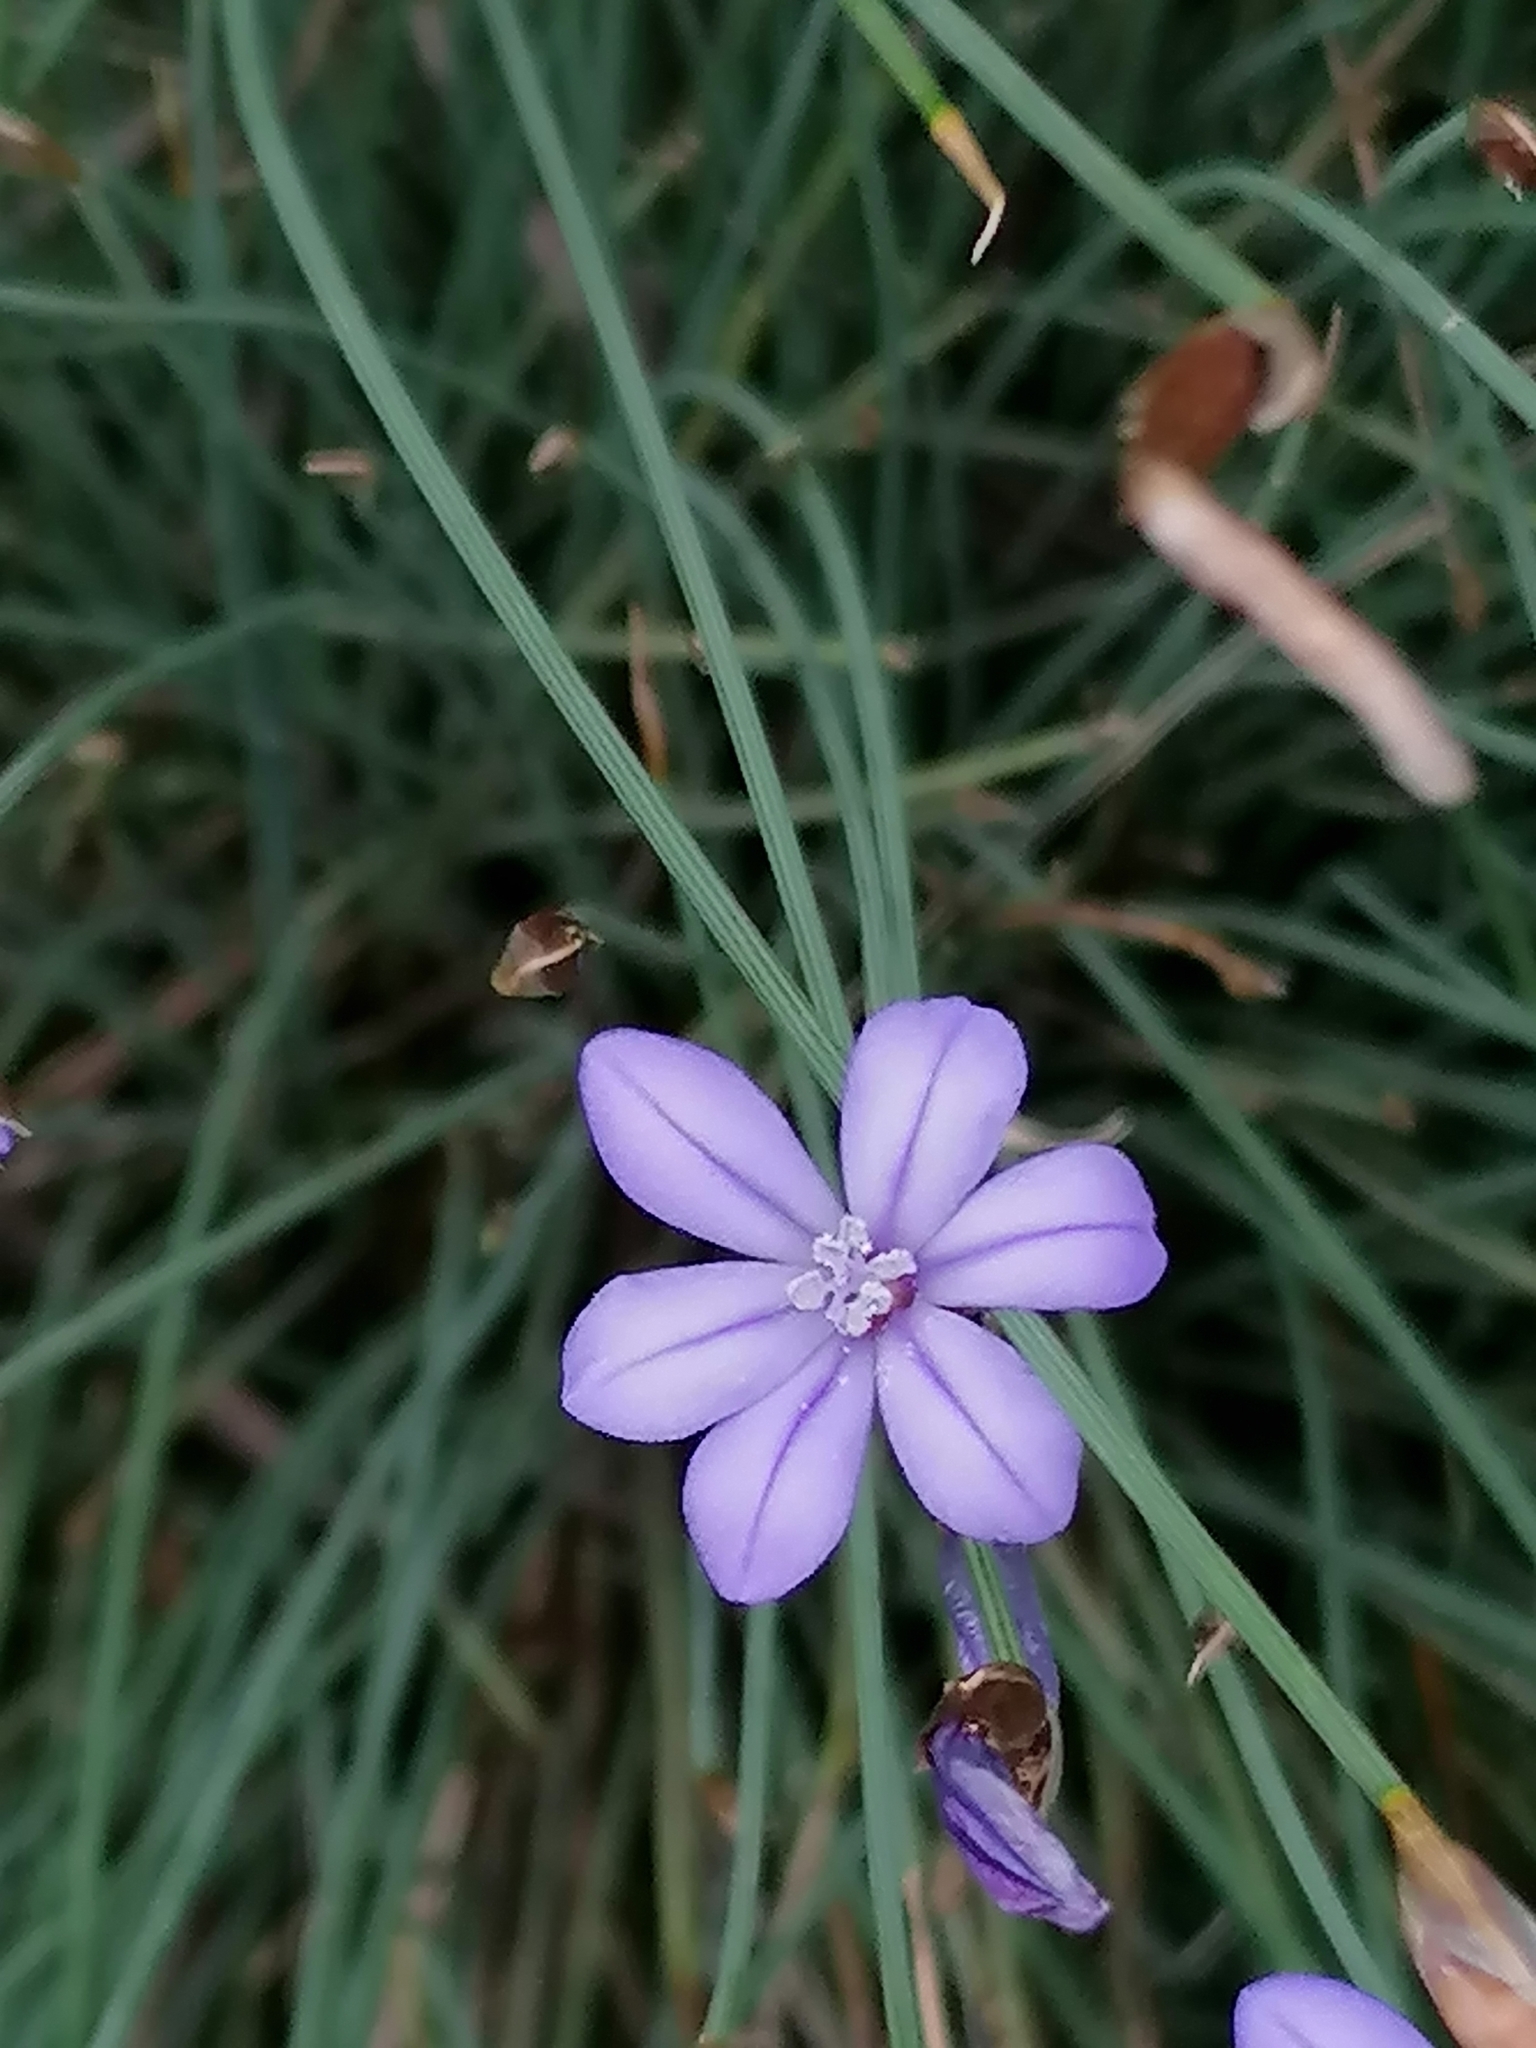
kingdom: Plantae
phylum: Tracheophyta
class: Liliopsida
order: Asparagales
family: Asparagaceae
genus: Aphyllanthes
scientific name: Aphyllanthes monspeliensis
